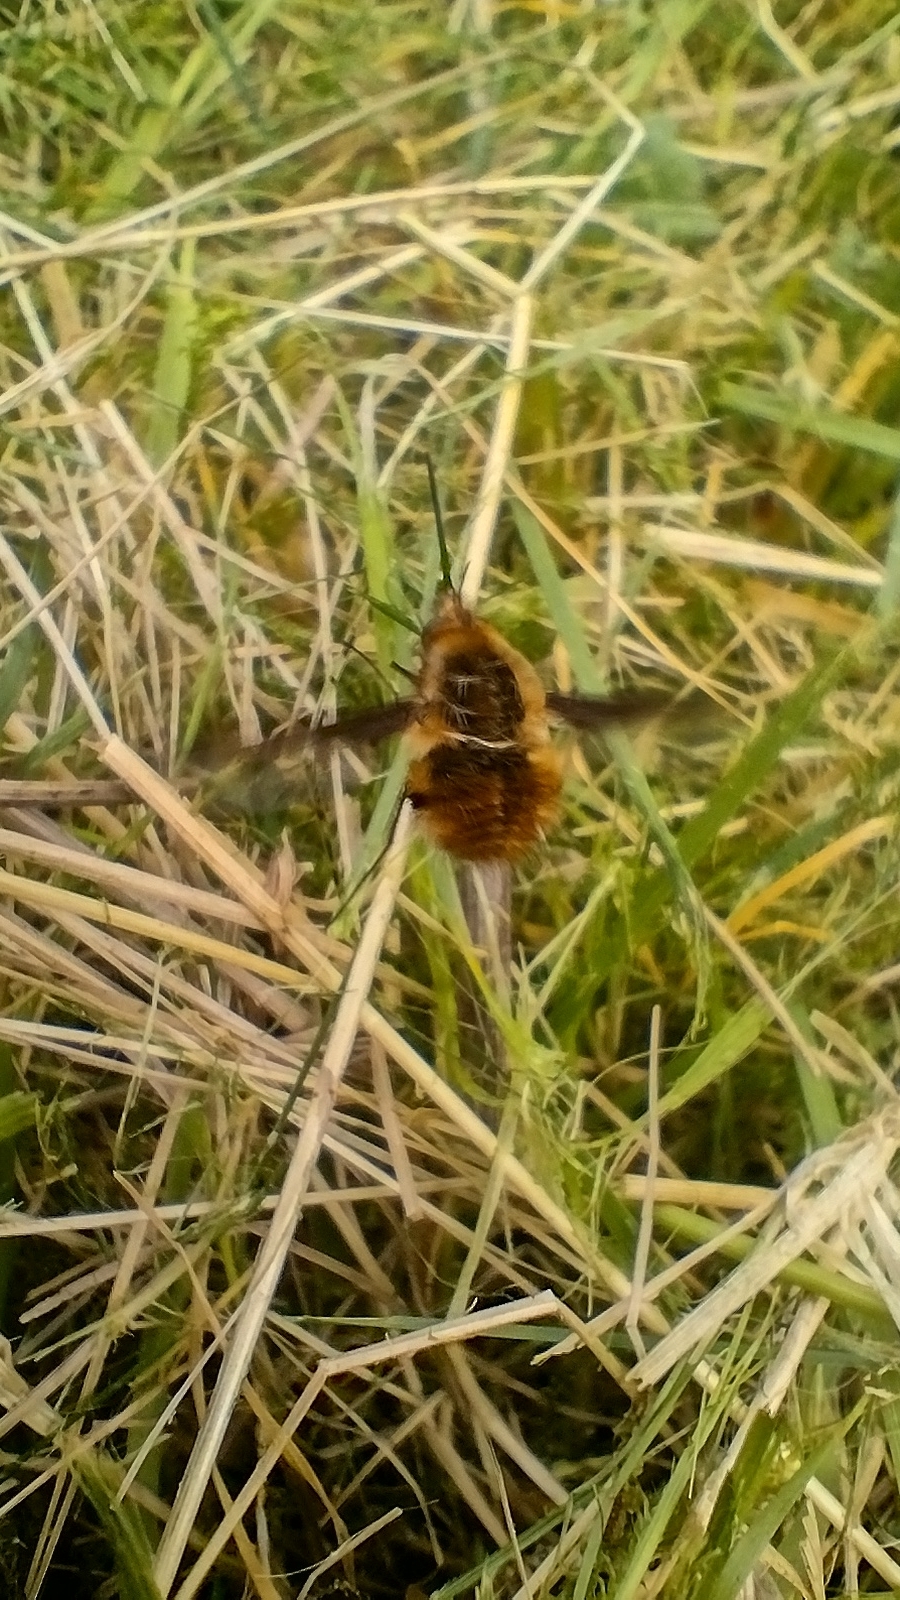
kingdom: Animalia
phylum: Arthropoda
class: Insecta
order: Diptera
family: Bombyliidae
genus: Bombylius
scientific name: Bombylius major
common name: Bee fly
